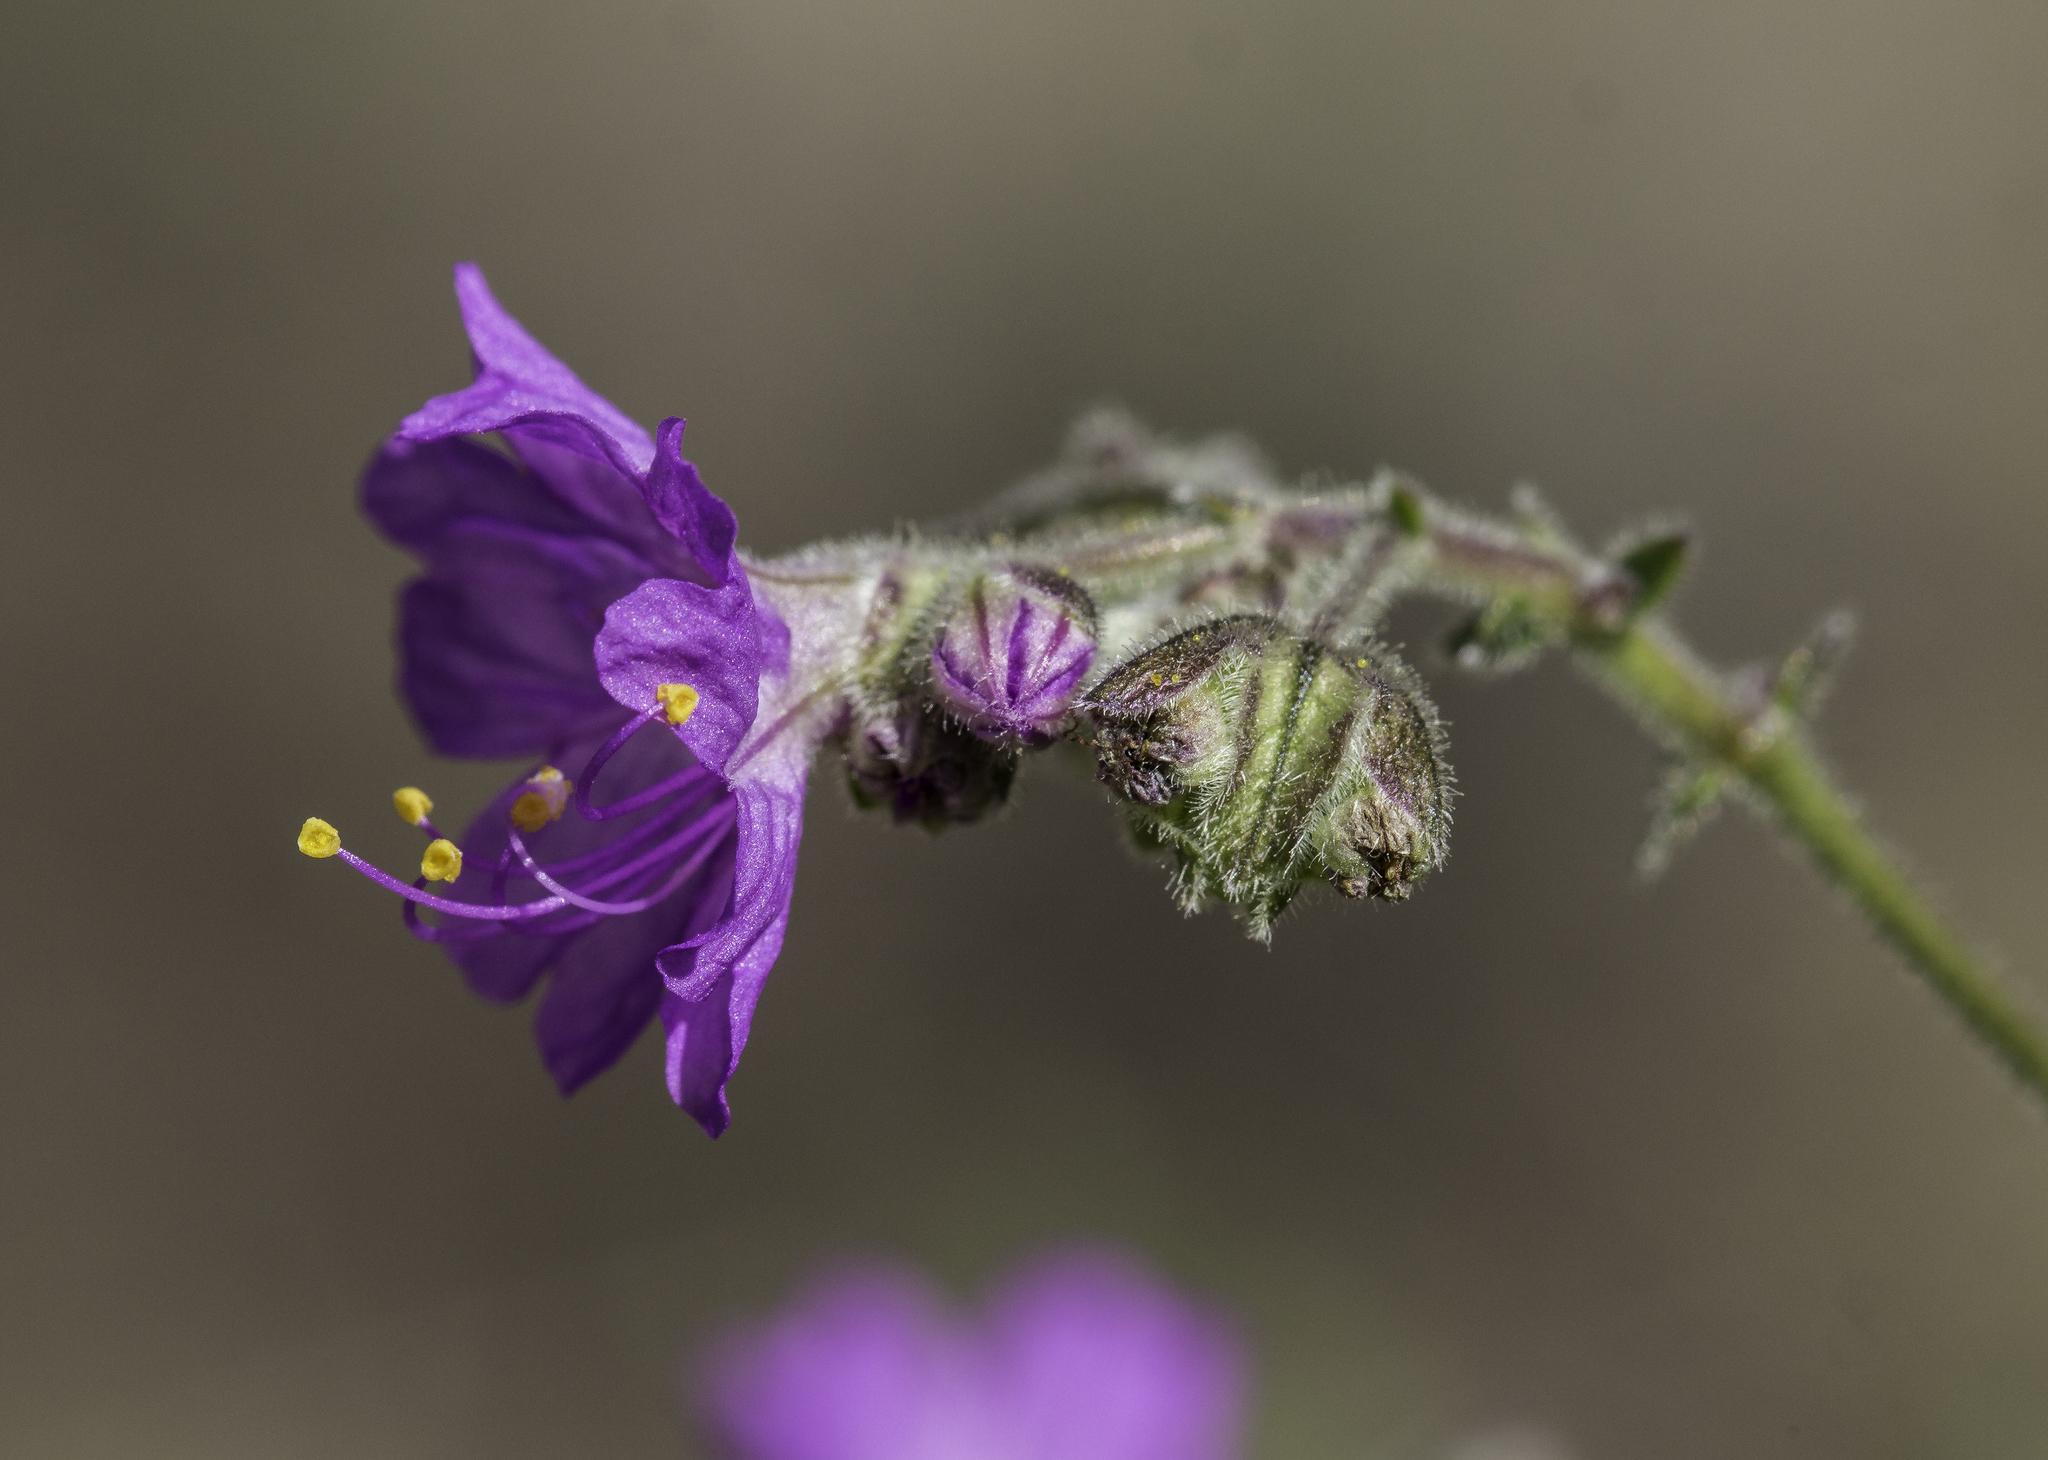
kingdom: Plantae
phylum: Tracheophyta
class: Magnoliopsida
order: Caryophyllales
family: Nyctaginaceae
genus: Mirabilis
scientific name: Mirabilis linearis
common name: Linear-leaved four-o'clock
